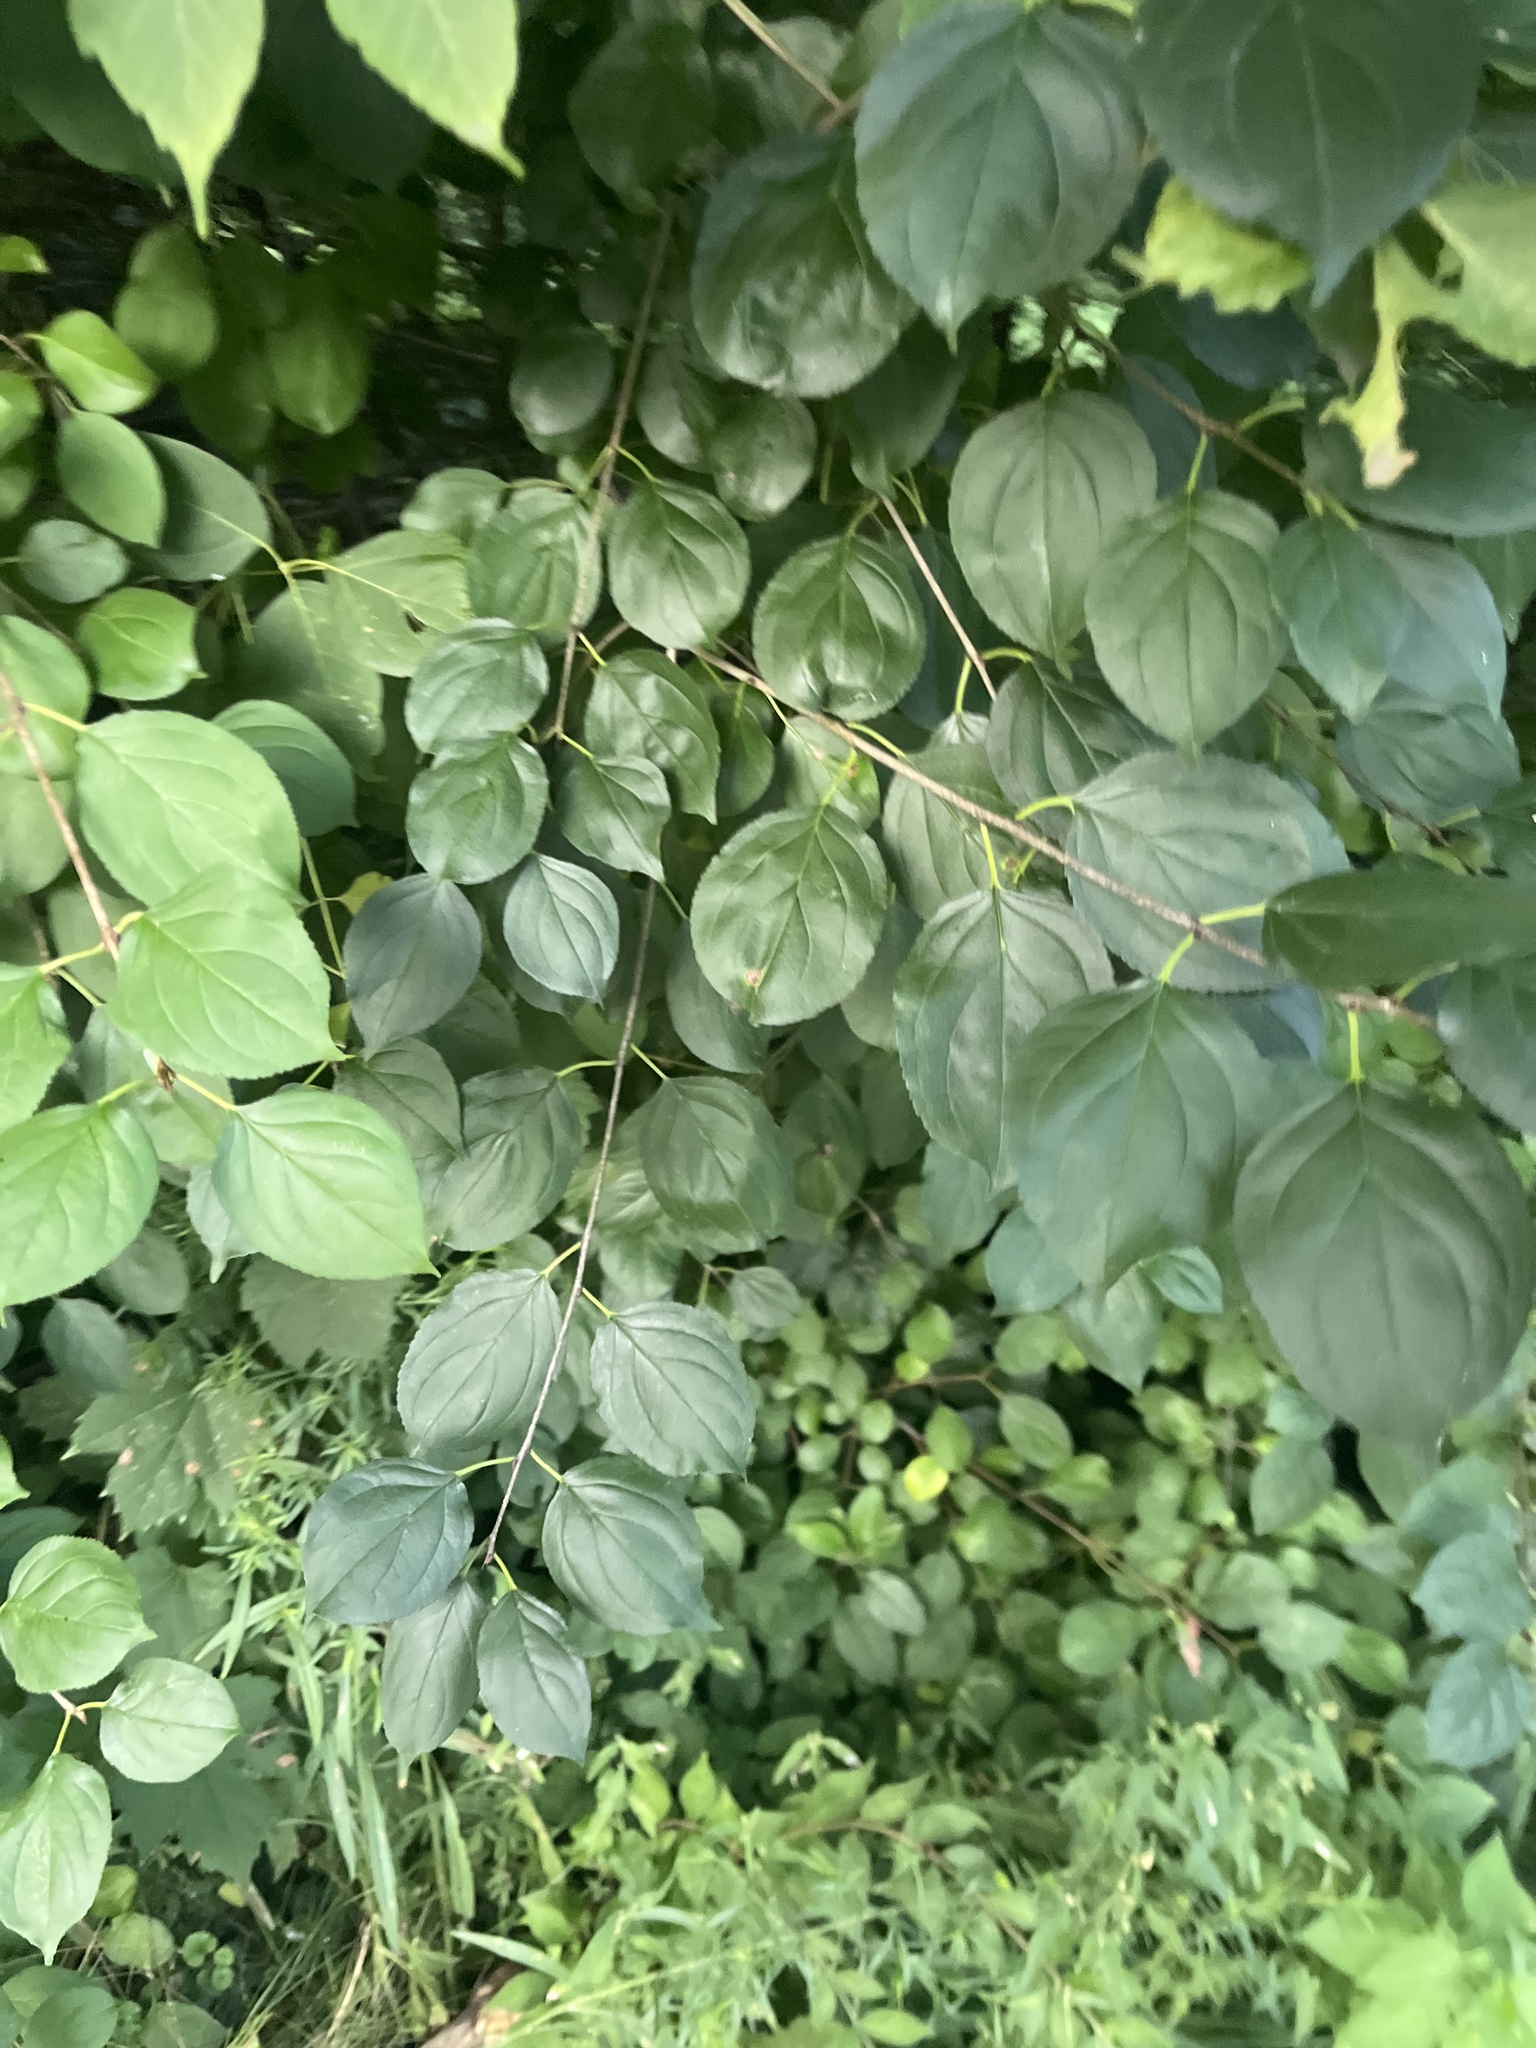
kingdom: Plantae
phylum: Tracheophyta
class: Magnoliopsida
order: Rosales
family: Rhamnaceae
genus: Rhamnus
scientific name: Rhamnus cathartica
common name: Common buckthorn
